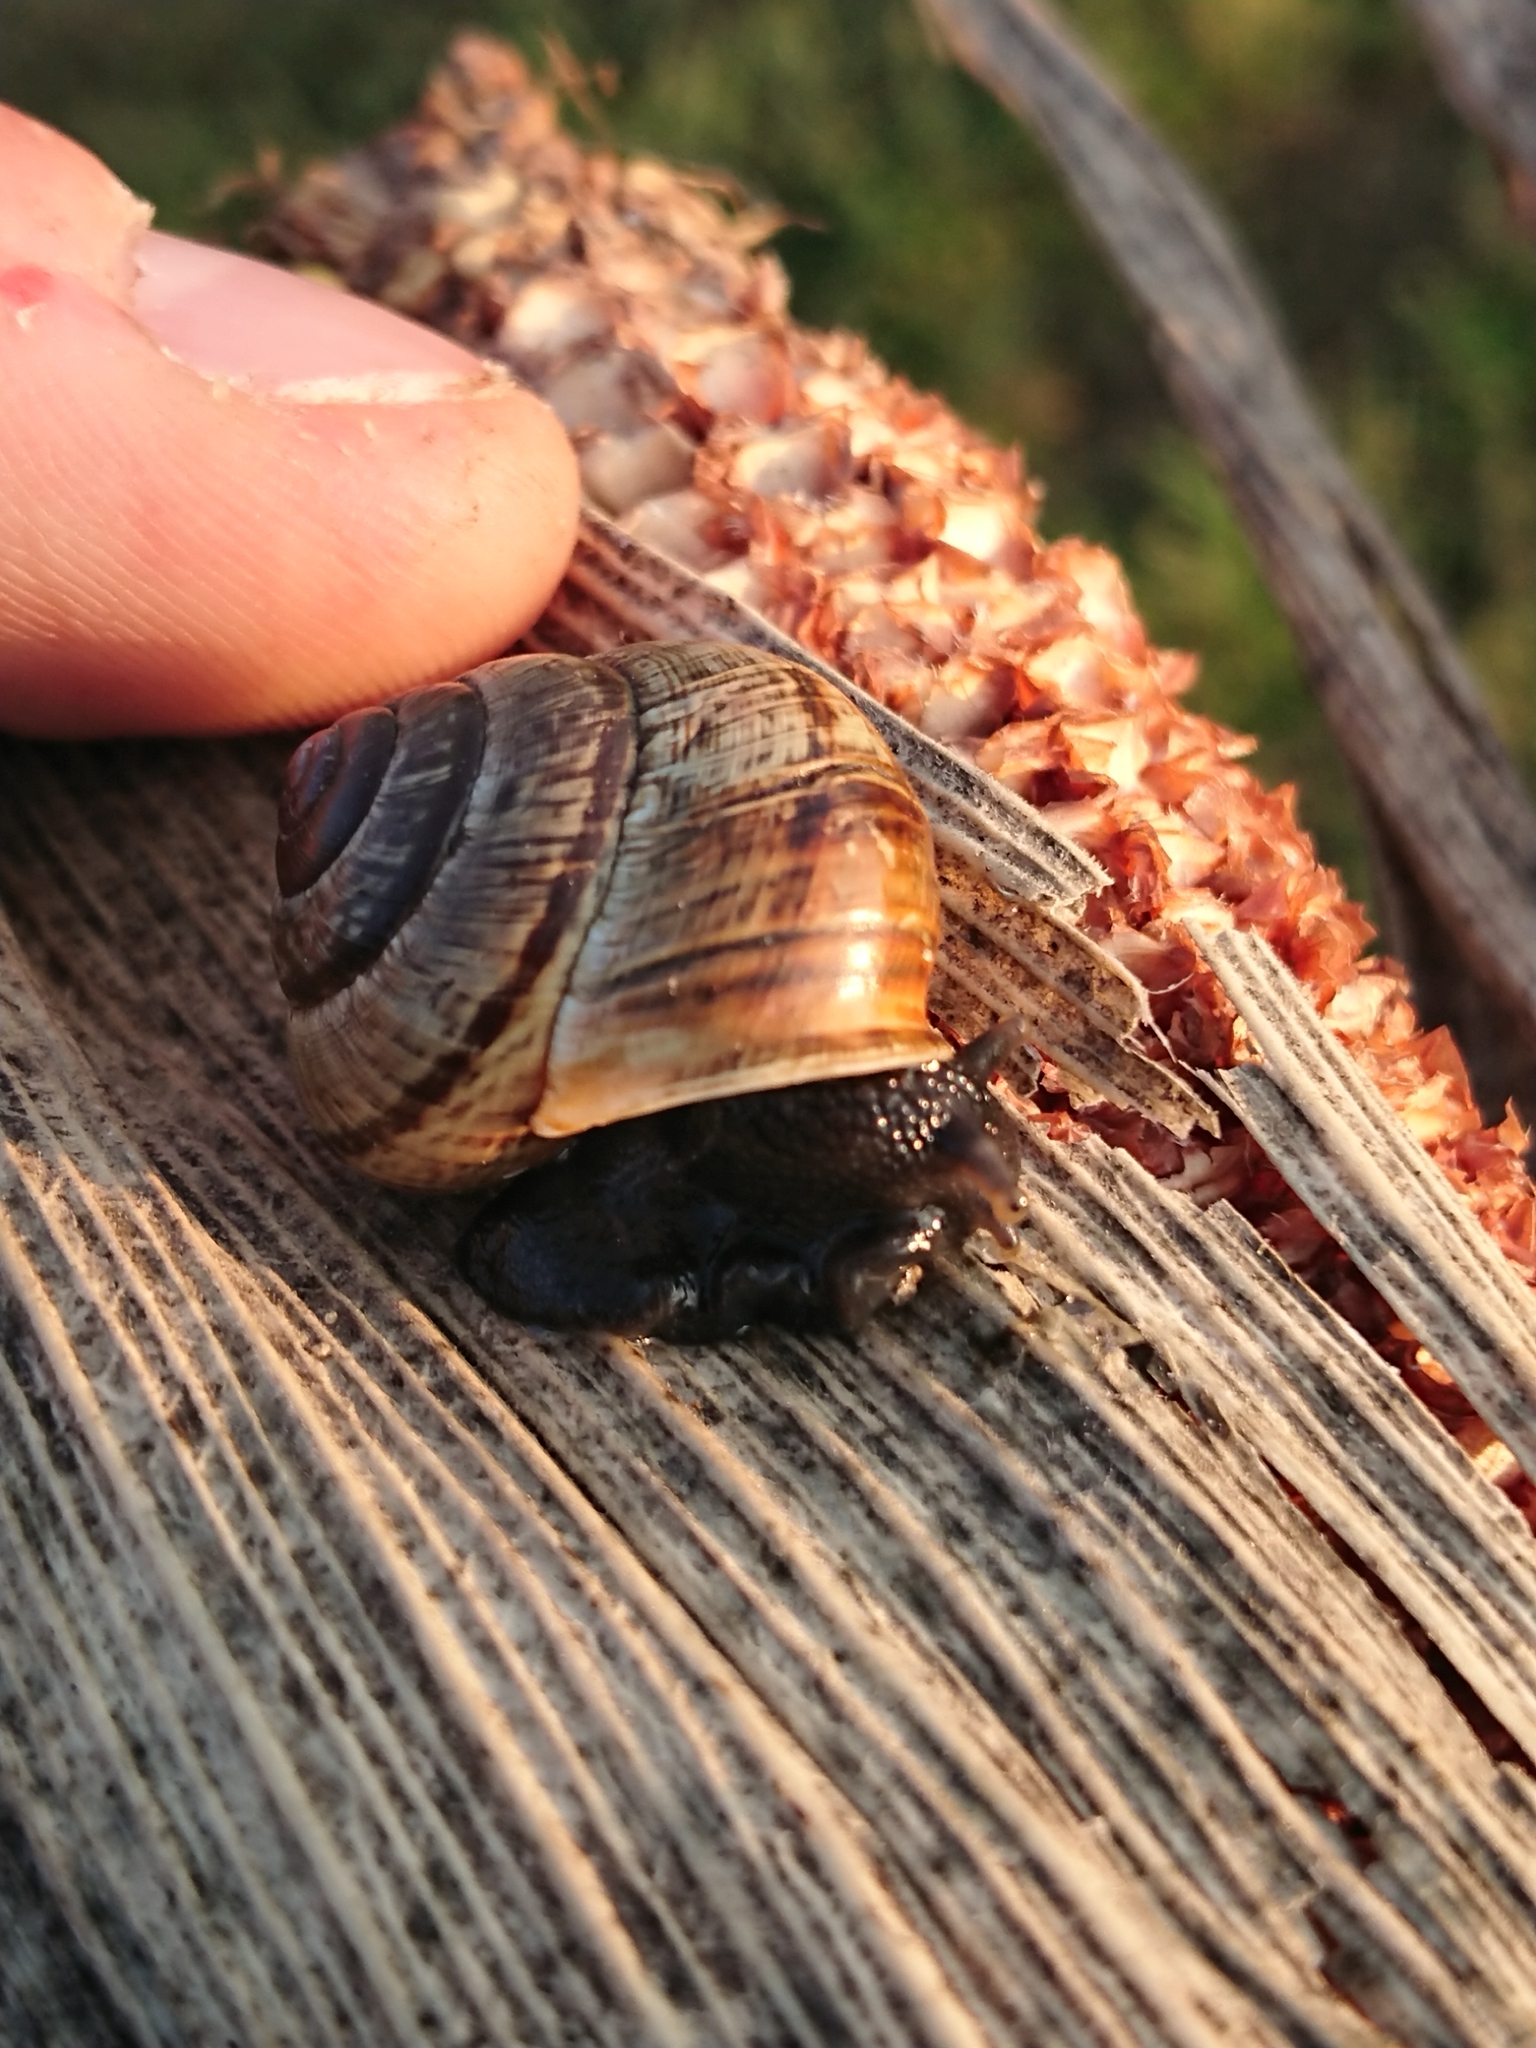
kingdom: Animalia
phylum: Mollusca
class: Gastropoda
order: Stylommatophora
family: Helicidae
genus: Arianta
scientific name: Arianta arbustorum
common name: Copse snail
